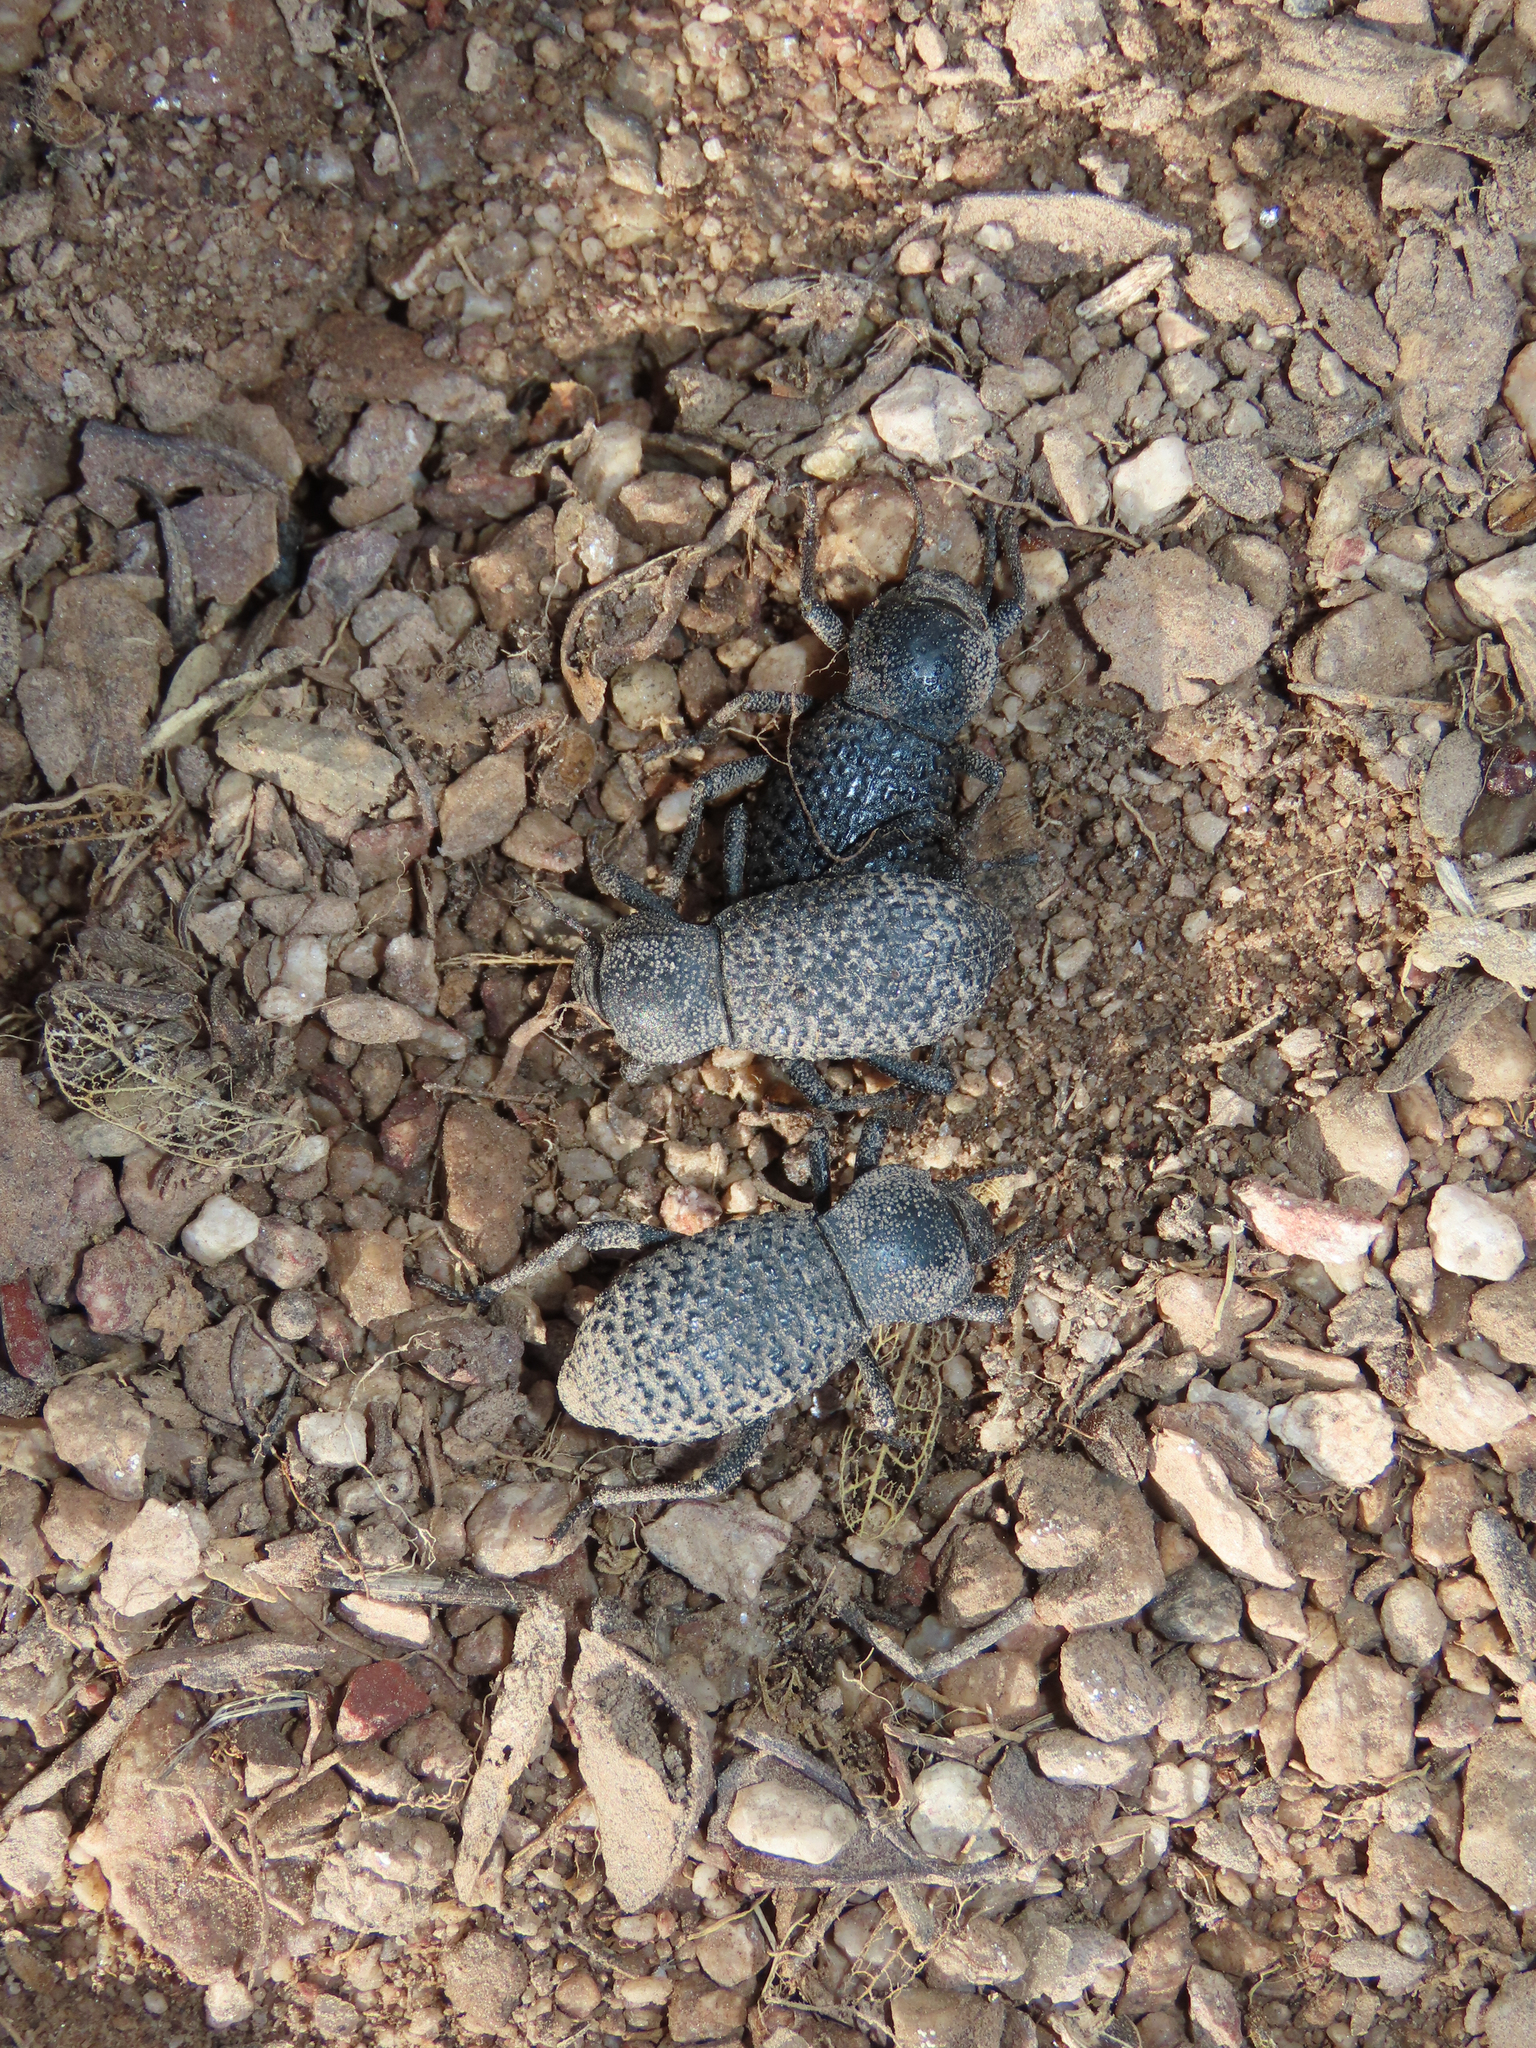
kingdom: Animalia
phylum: Arthropoda
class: Insecta
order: Coleoptera
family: Tenebrionidae
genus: Cryptoglossa
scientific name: Cryptoglossa variolosa
